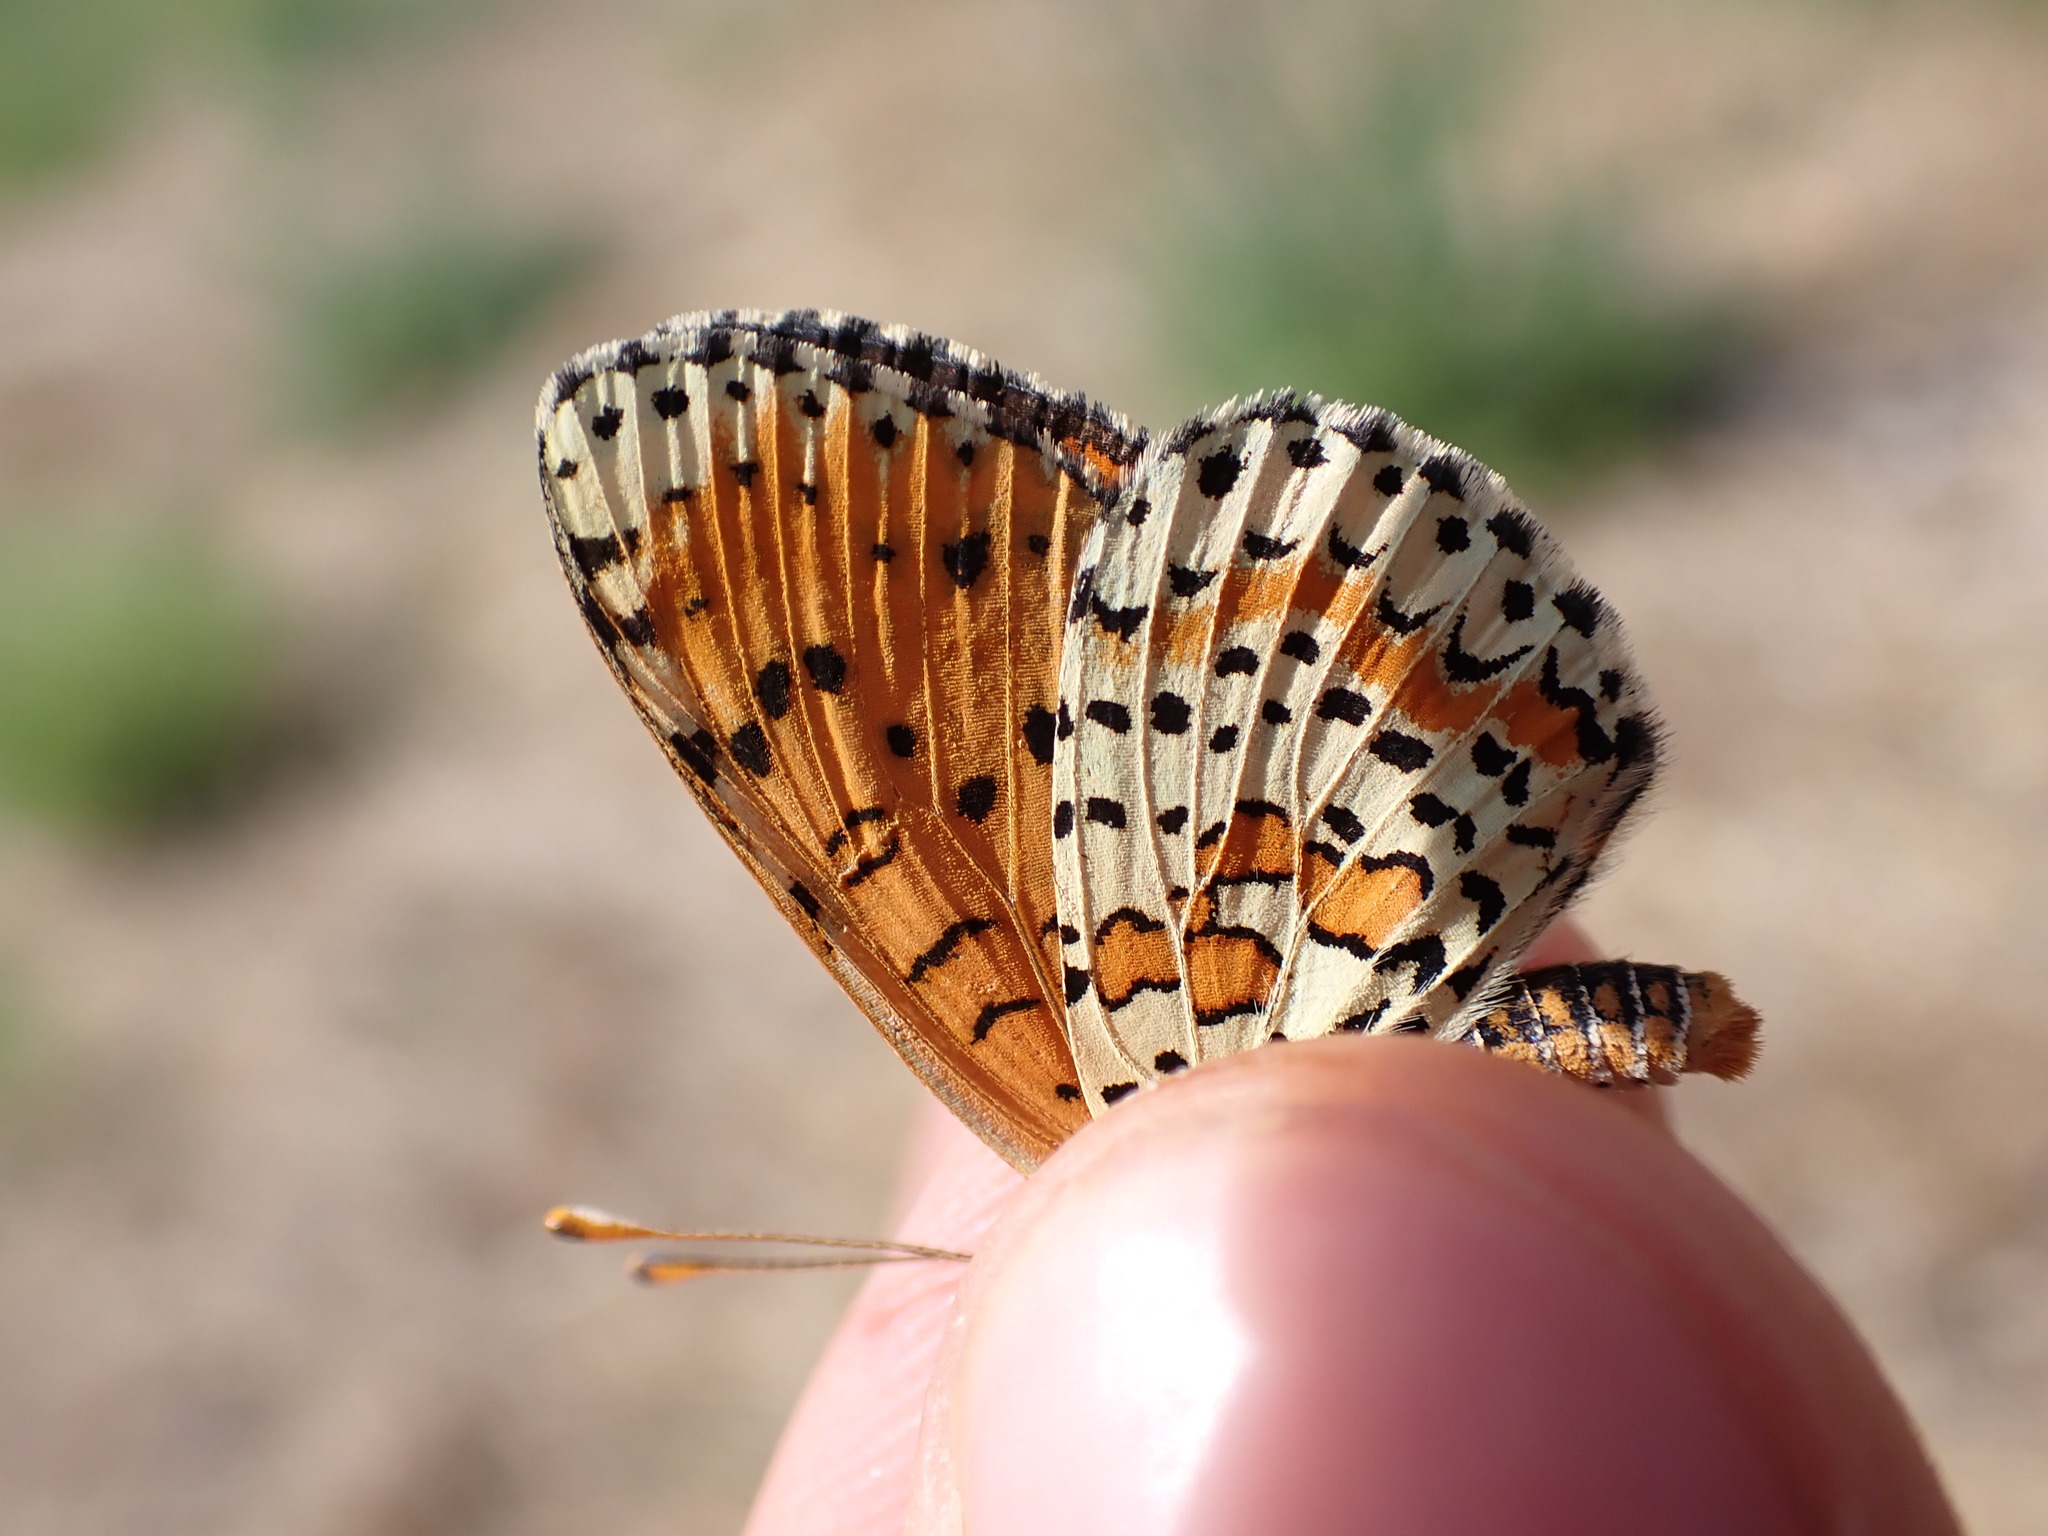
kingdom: Animalia
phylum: Arthropoda
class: Insecta
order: Lepidoptera
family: Nymphalidae
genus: Melitaea
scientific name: Melitaea didyma
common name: Spotted fritillary
